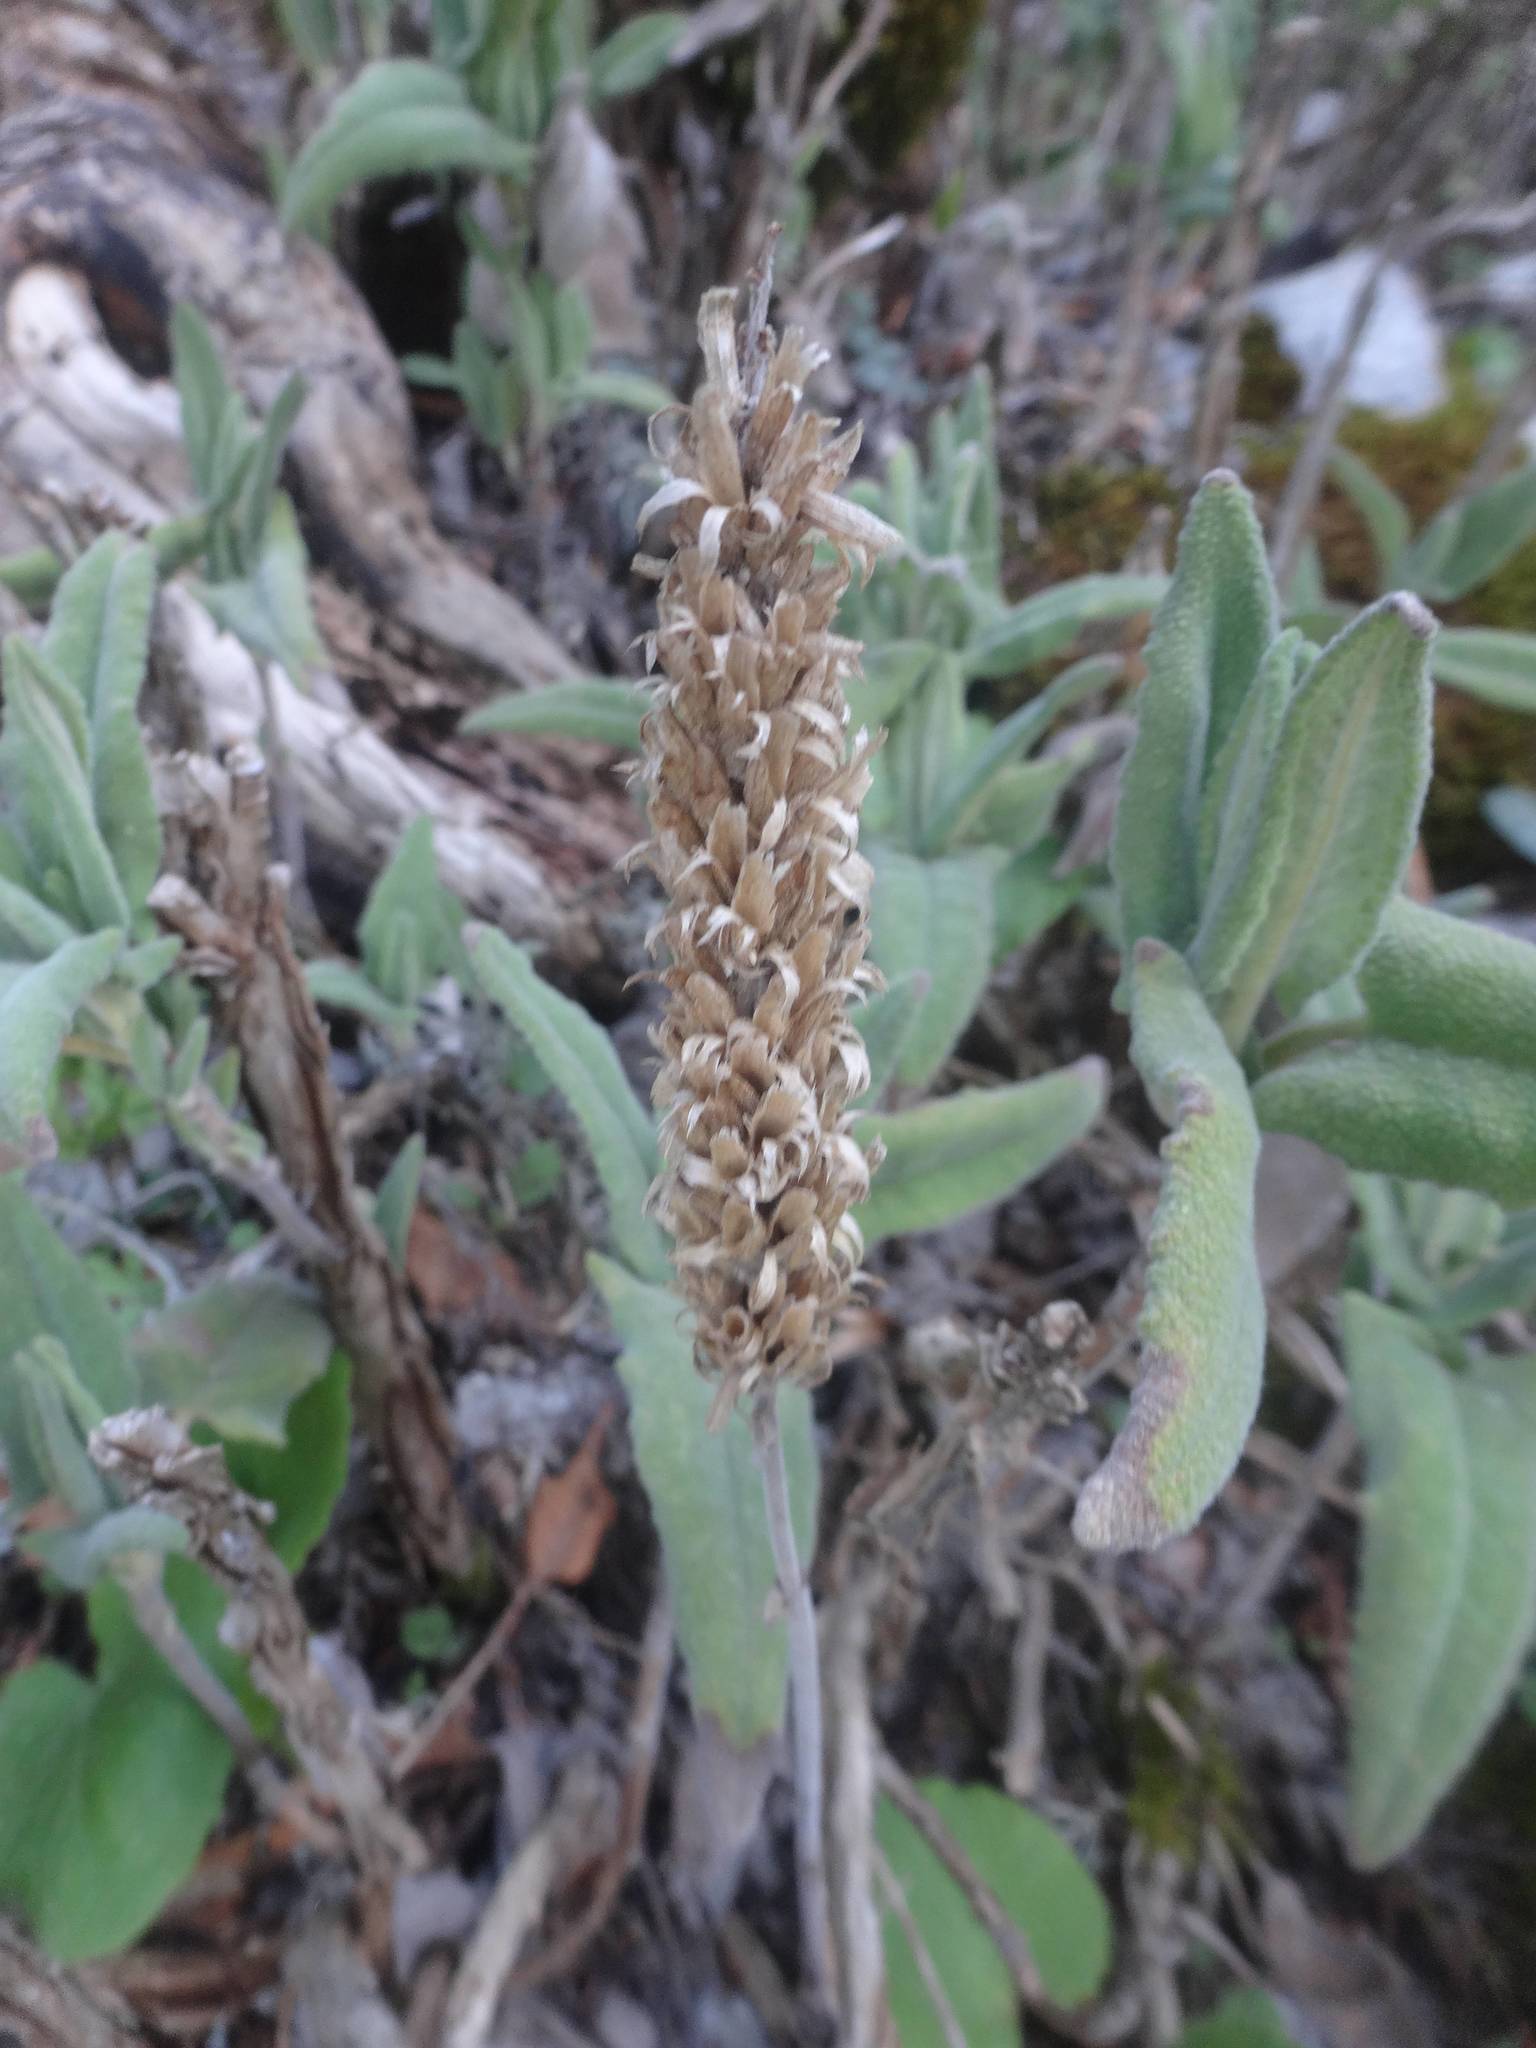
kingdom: Plantae
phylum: Tracheophyta
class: Magnoliopsida
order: Lamiales
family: Lamiaceae
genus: Salvia
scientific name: Salvia dorystaechas
